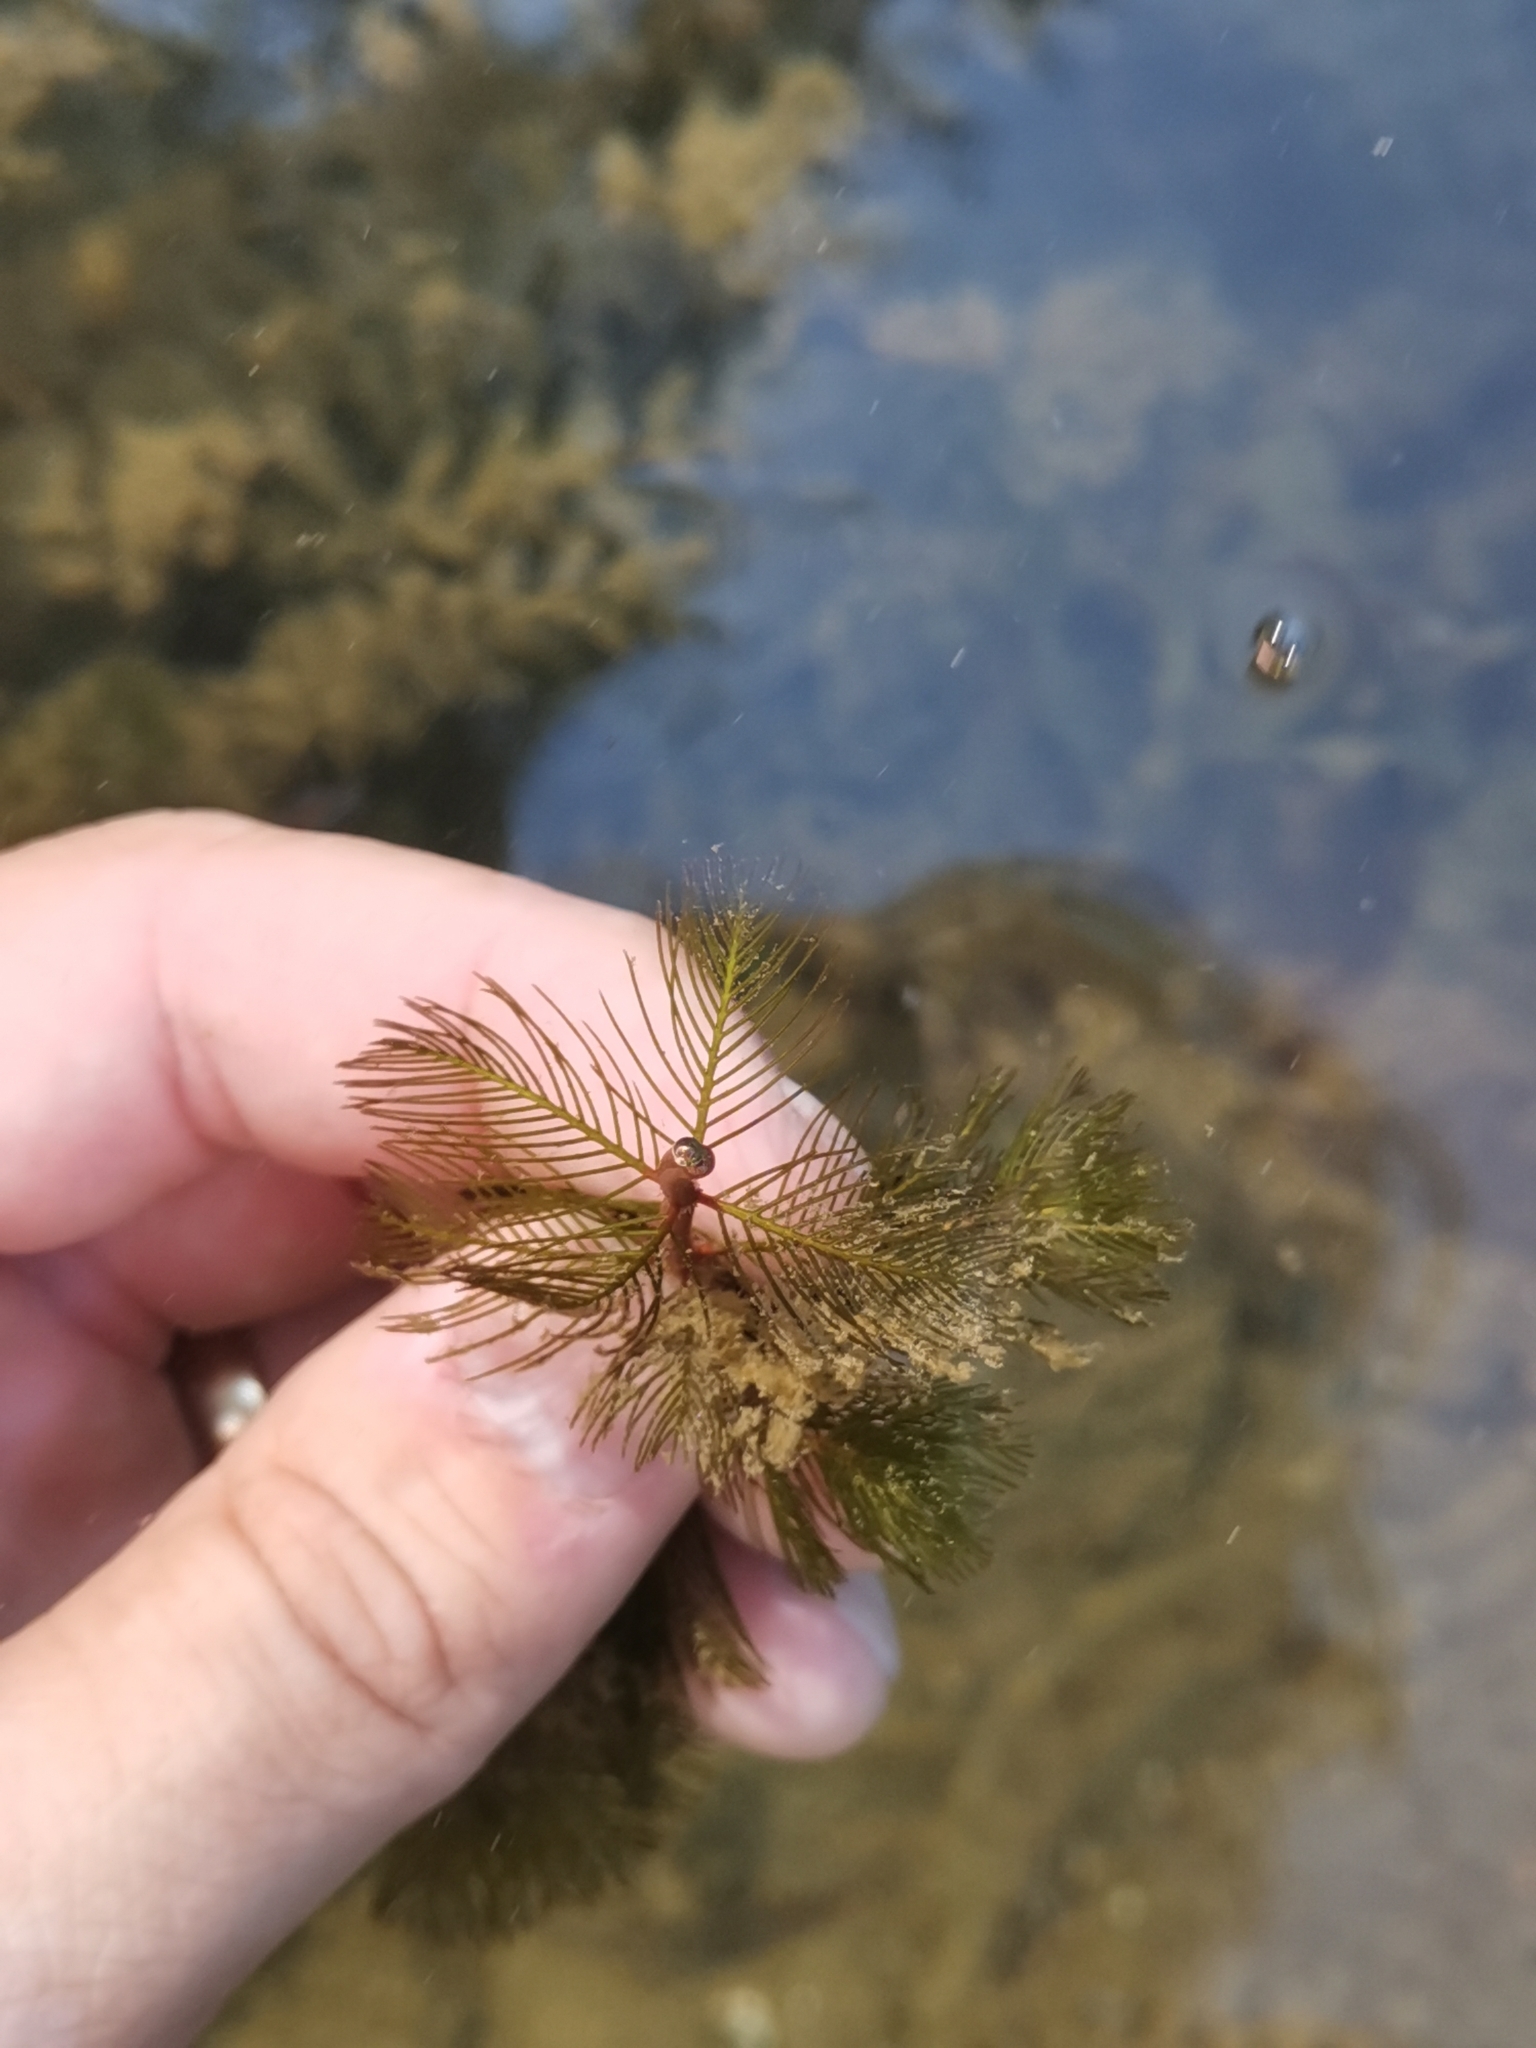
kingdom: Plantae
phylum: Tracheophyta
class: Magnoliopsida
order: Saxifragales
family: Haloragaceae
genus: Myriophyllum
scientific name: Myriophyllum spicatum
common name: Spiked water-milfoil
